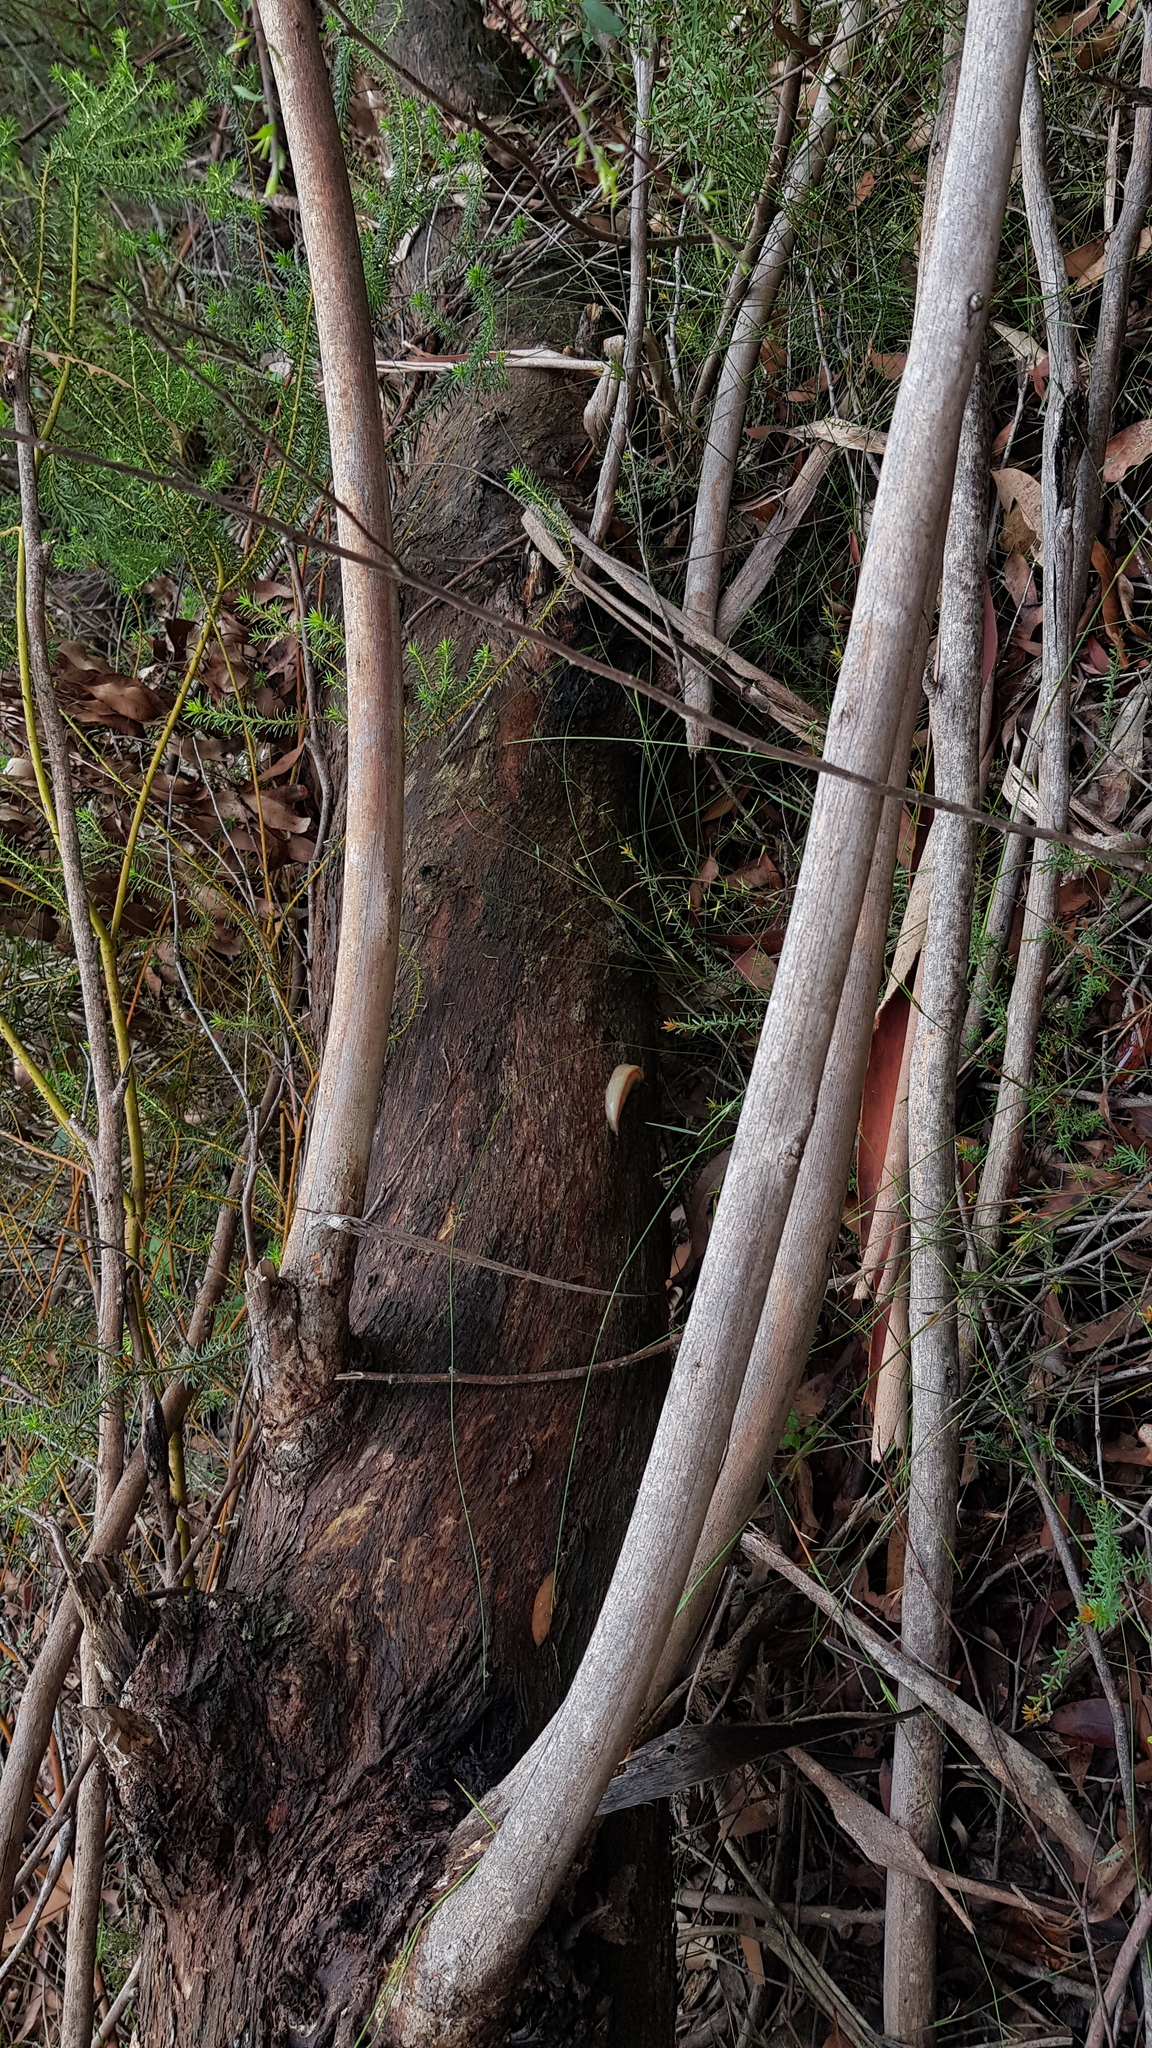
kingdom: Animalia
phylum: Mollusca
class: Gastropoda
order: Stylommatophora
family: Athoracophoridae
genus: Triboniophorus
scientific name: Triboniophorus graeffei
